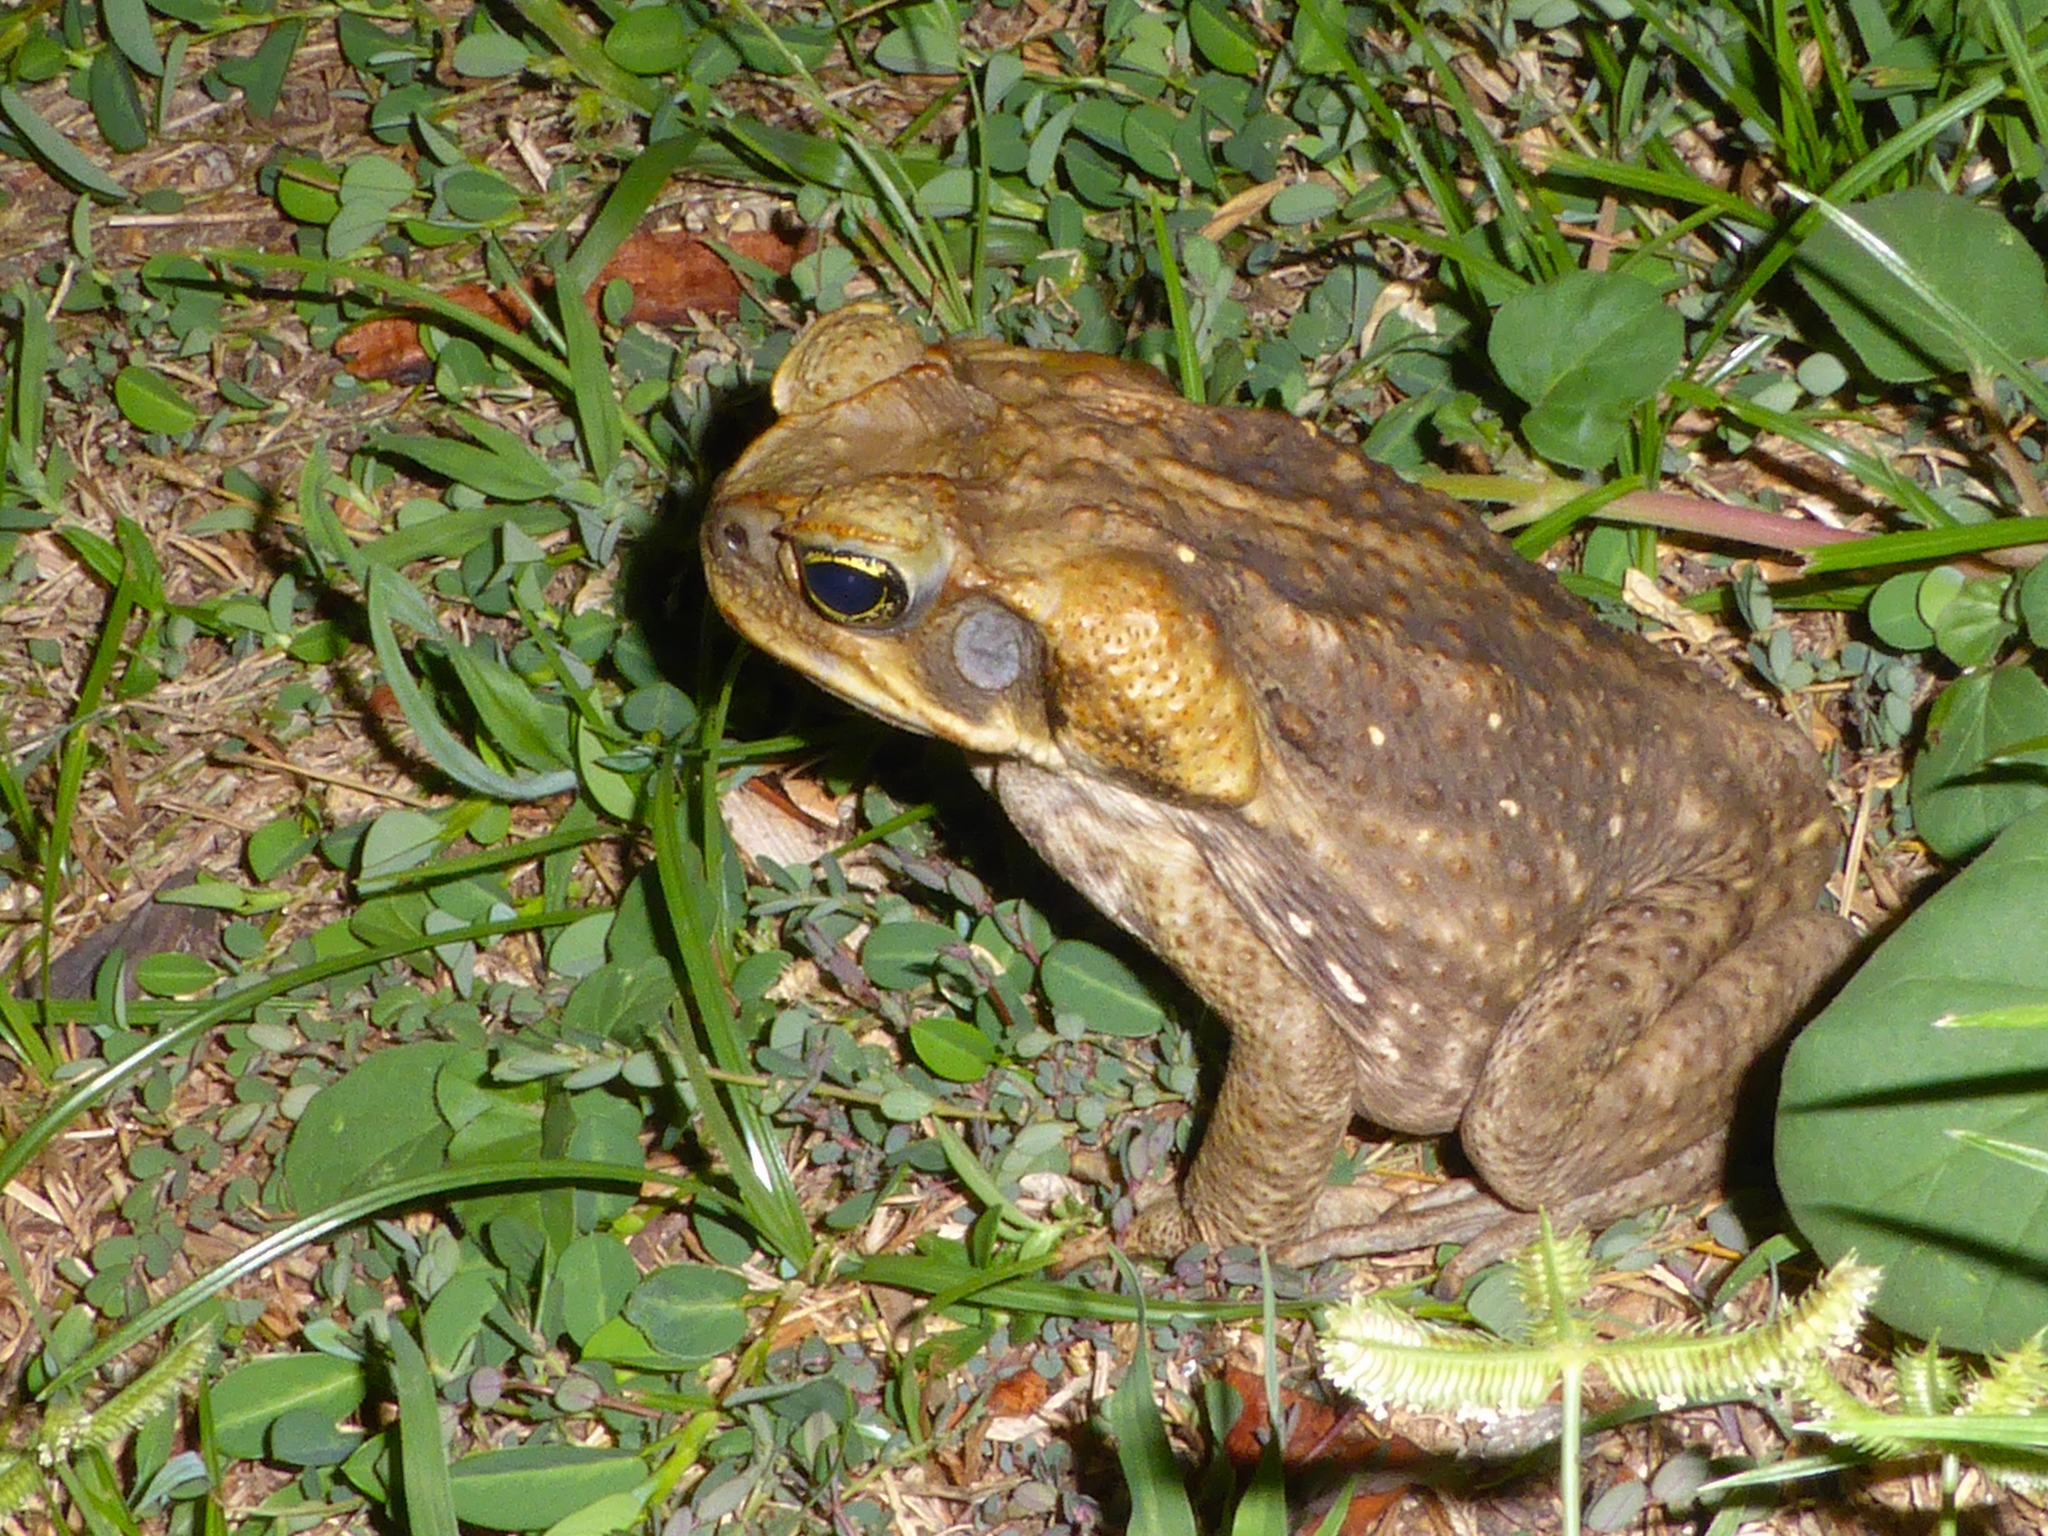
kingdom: Animalia
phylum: Chordata
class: Amphibia
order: Anura
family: Bufonidae
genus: Rhinella
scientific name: Rhinella marina
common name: Cane toad
